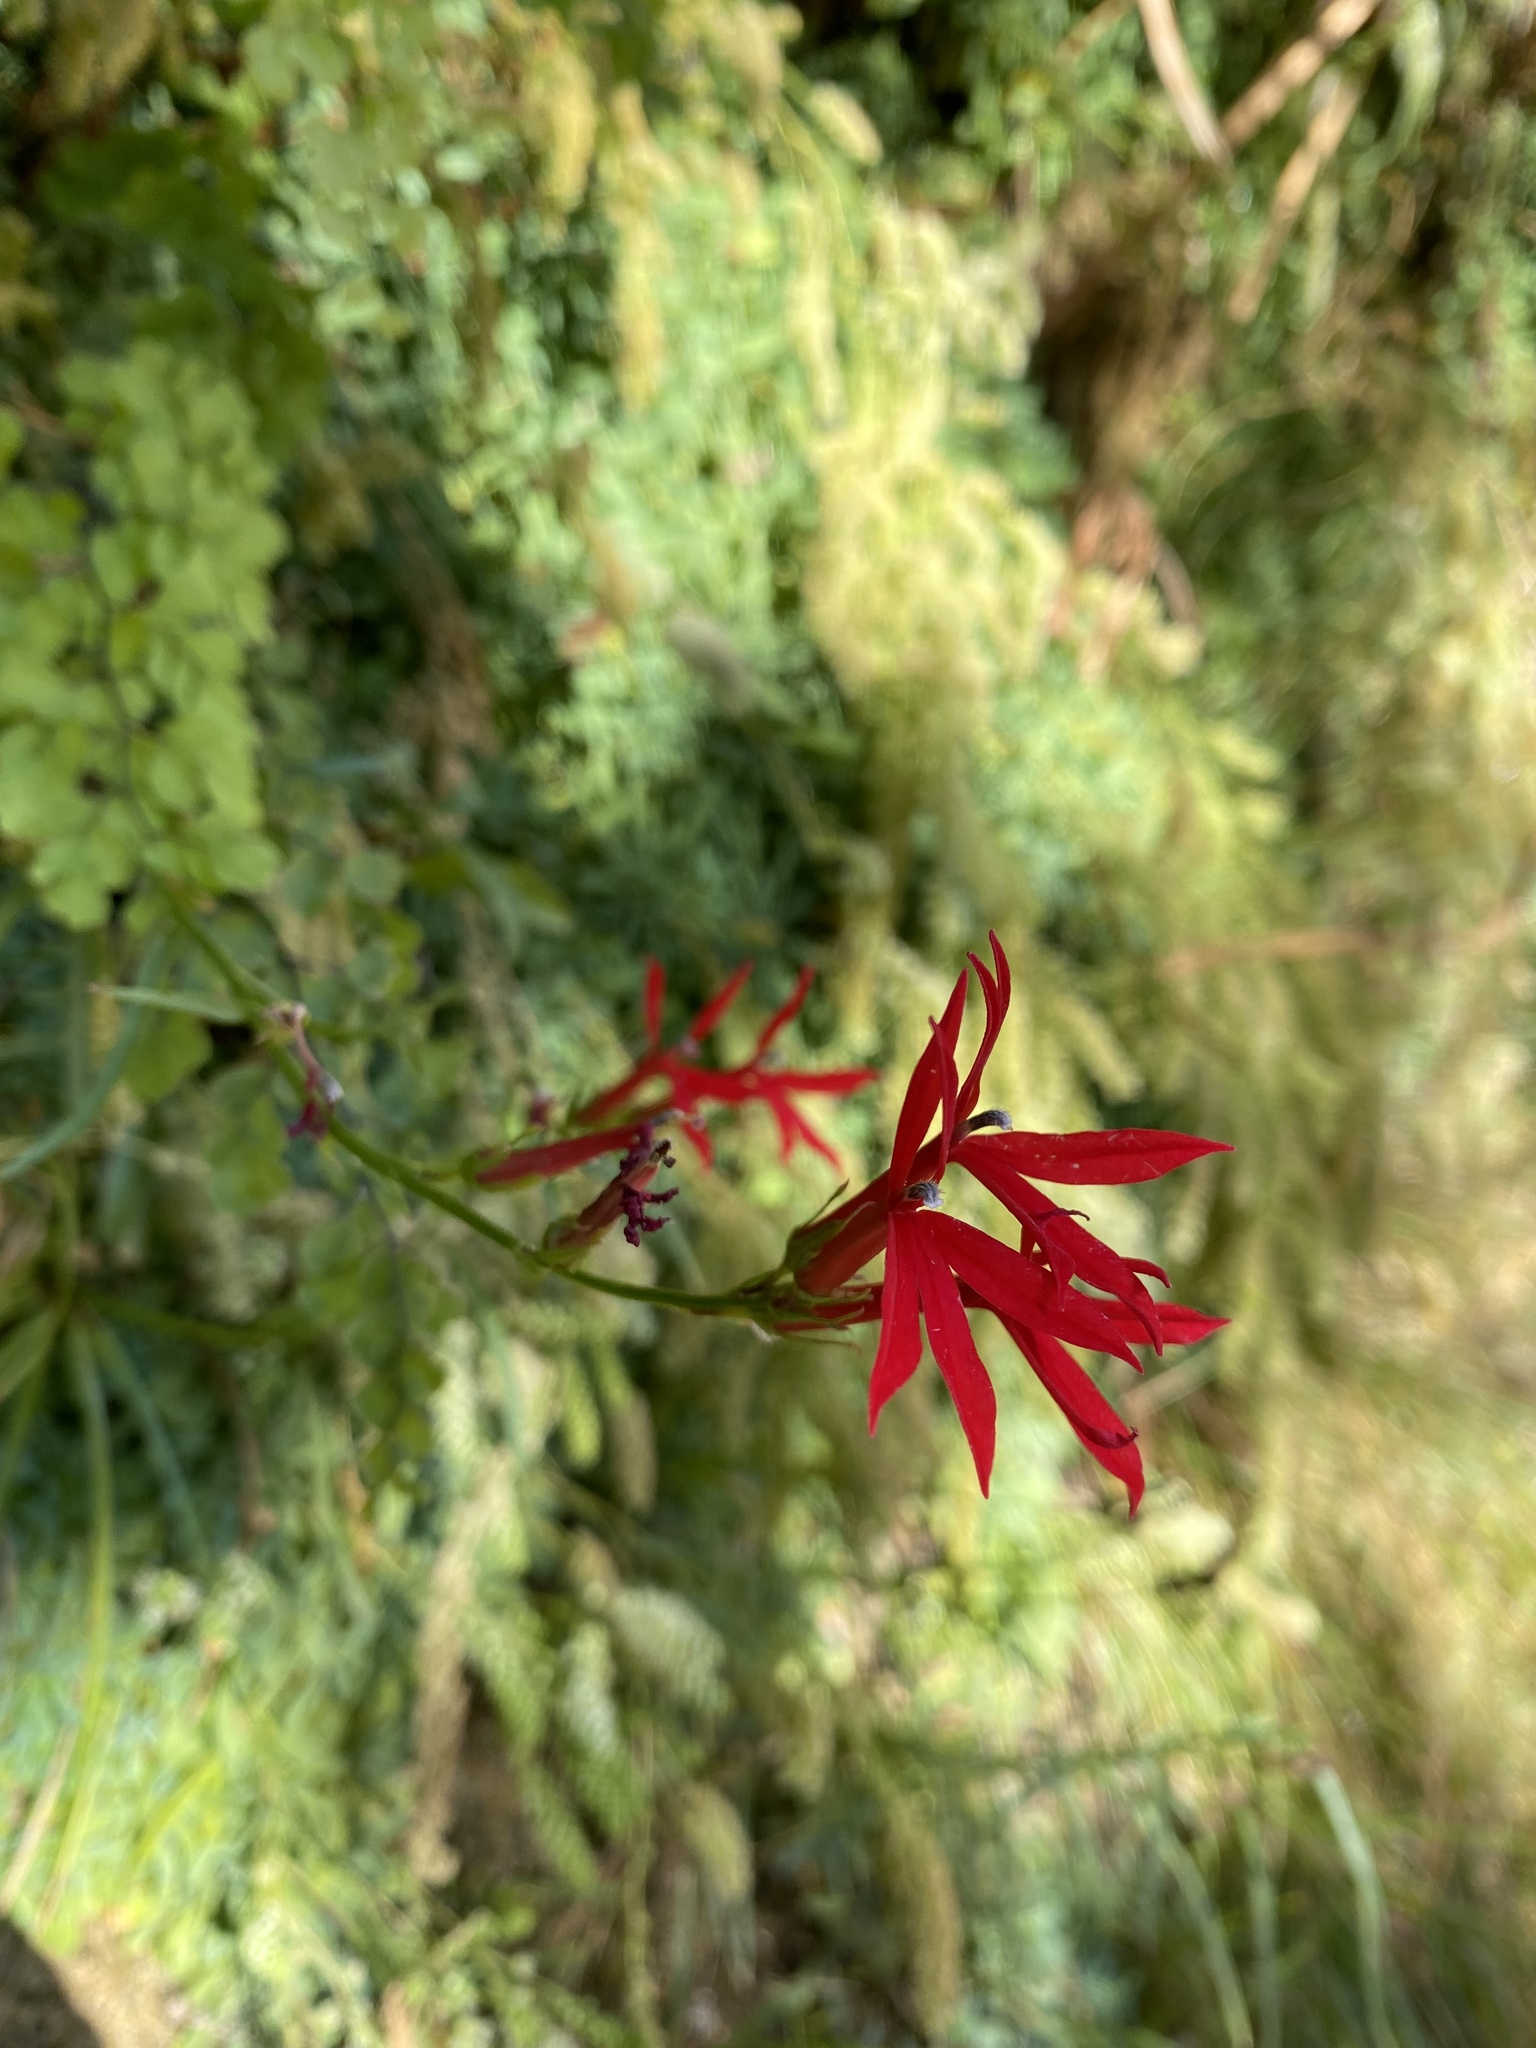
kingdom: Plantae
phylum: Tracheophyta
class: Magnoliopsida
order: Asterales
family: Campanulaceae
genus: Lobelia
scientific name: Lobelia cardinalis
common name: Cardinal flower
